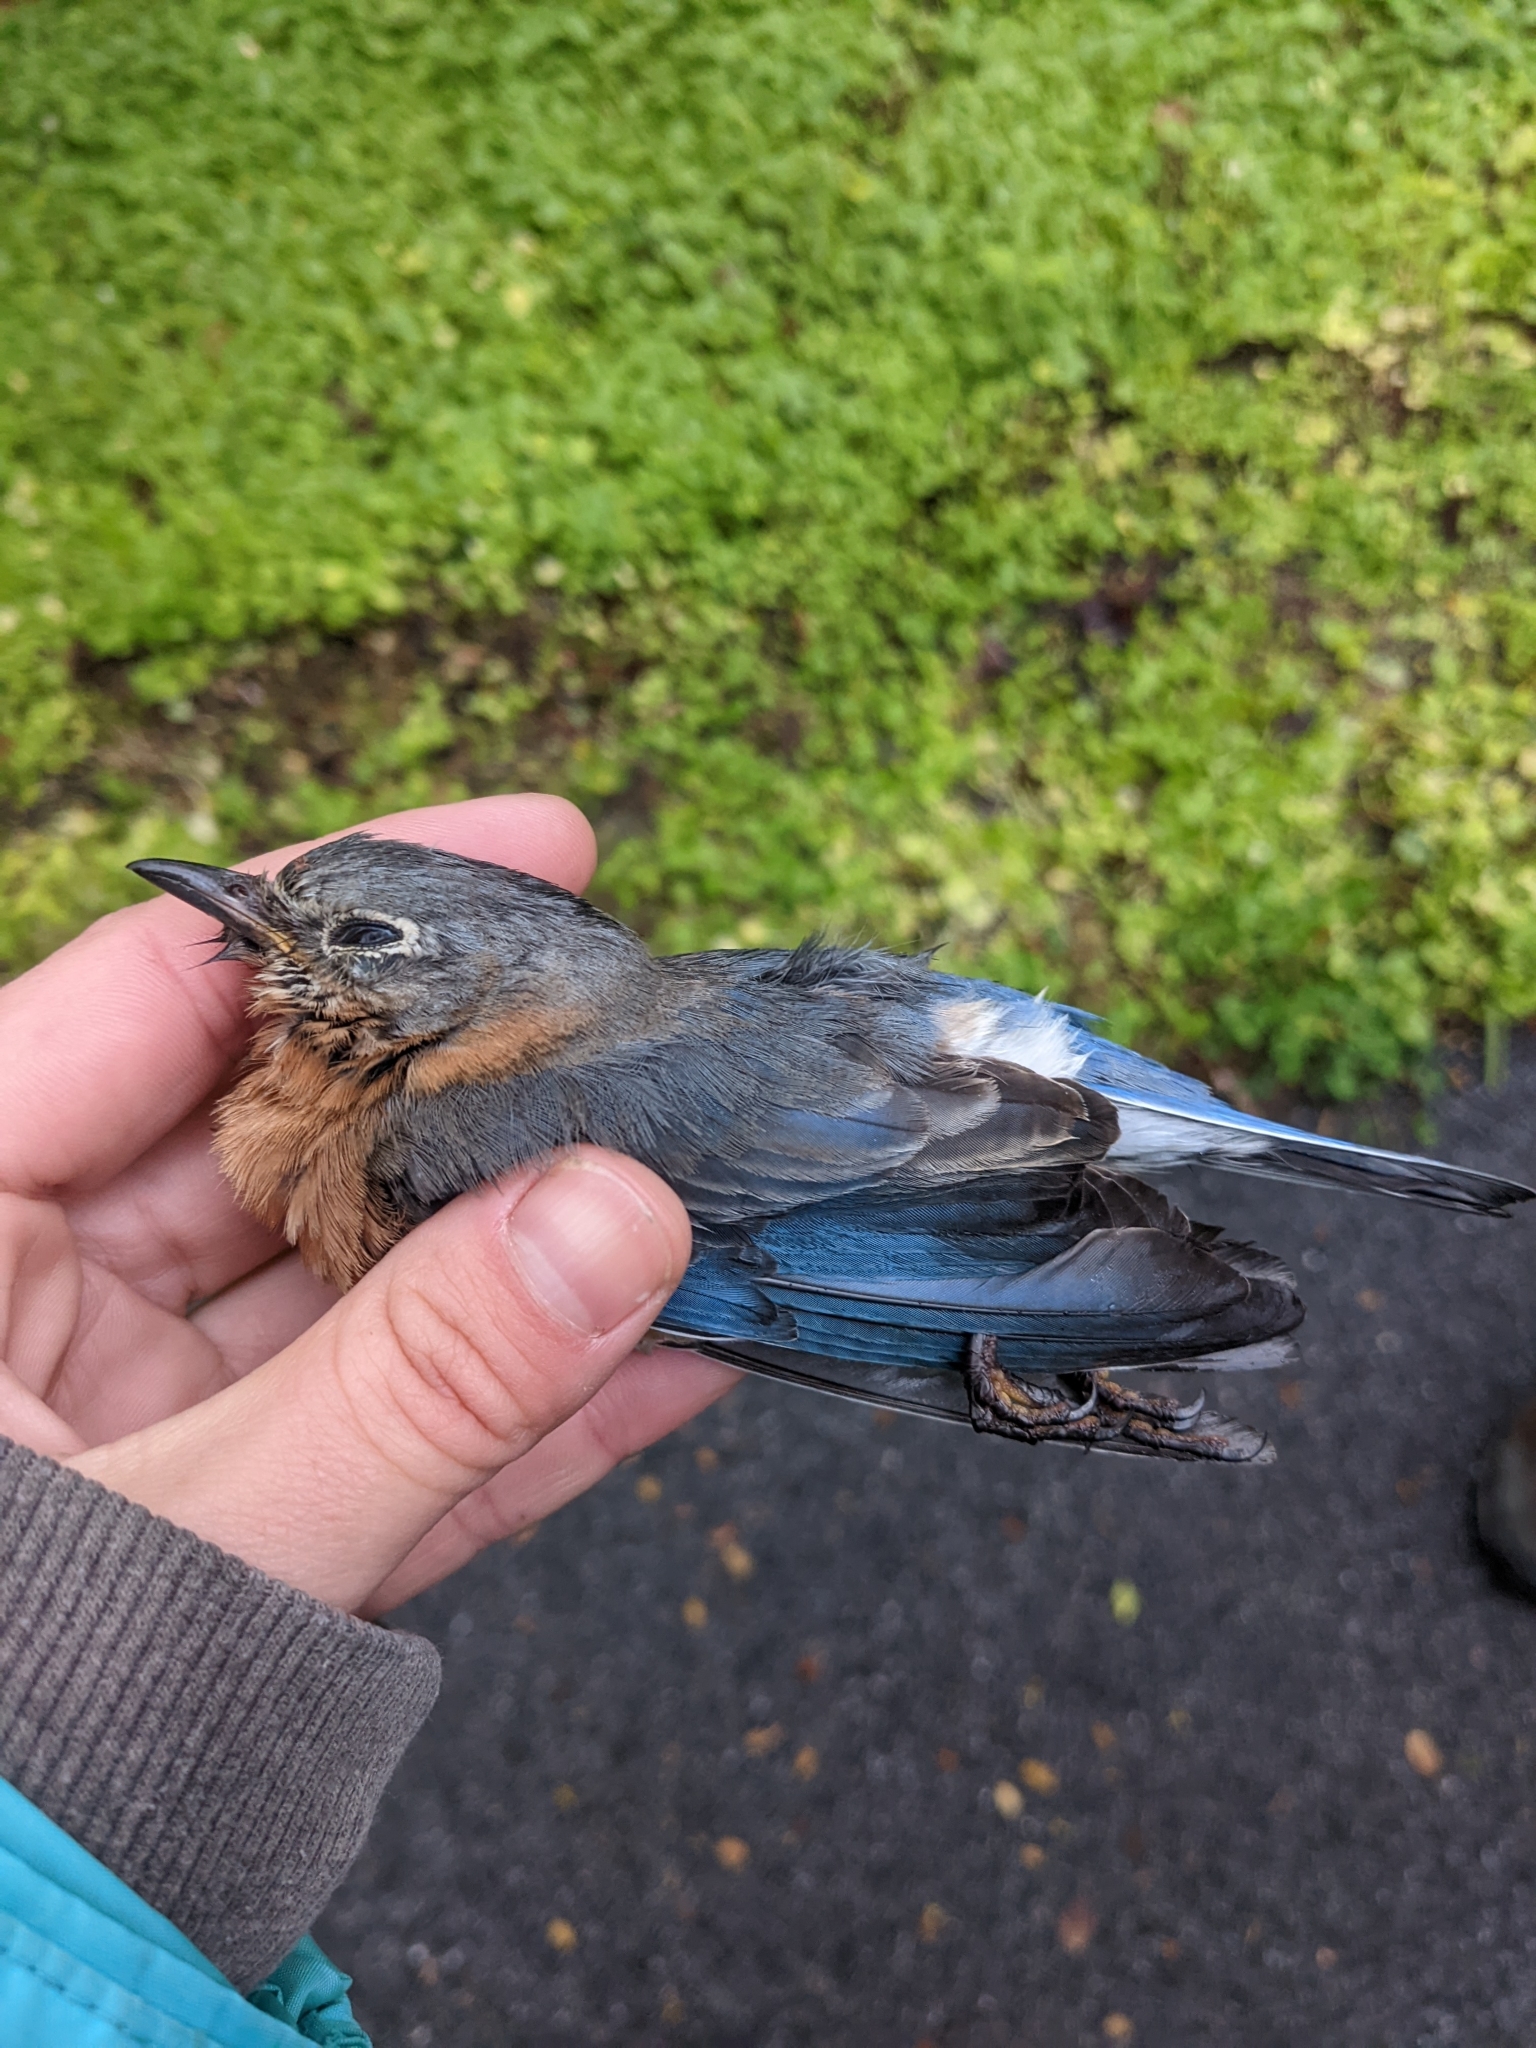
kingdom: Animalia
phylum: Chordata
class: Aves
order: Passeriformes
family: Turdidae
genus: Sialia
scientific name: Sialia sialis
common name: Eastern bluebird
